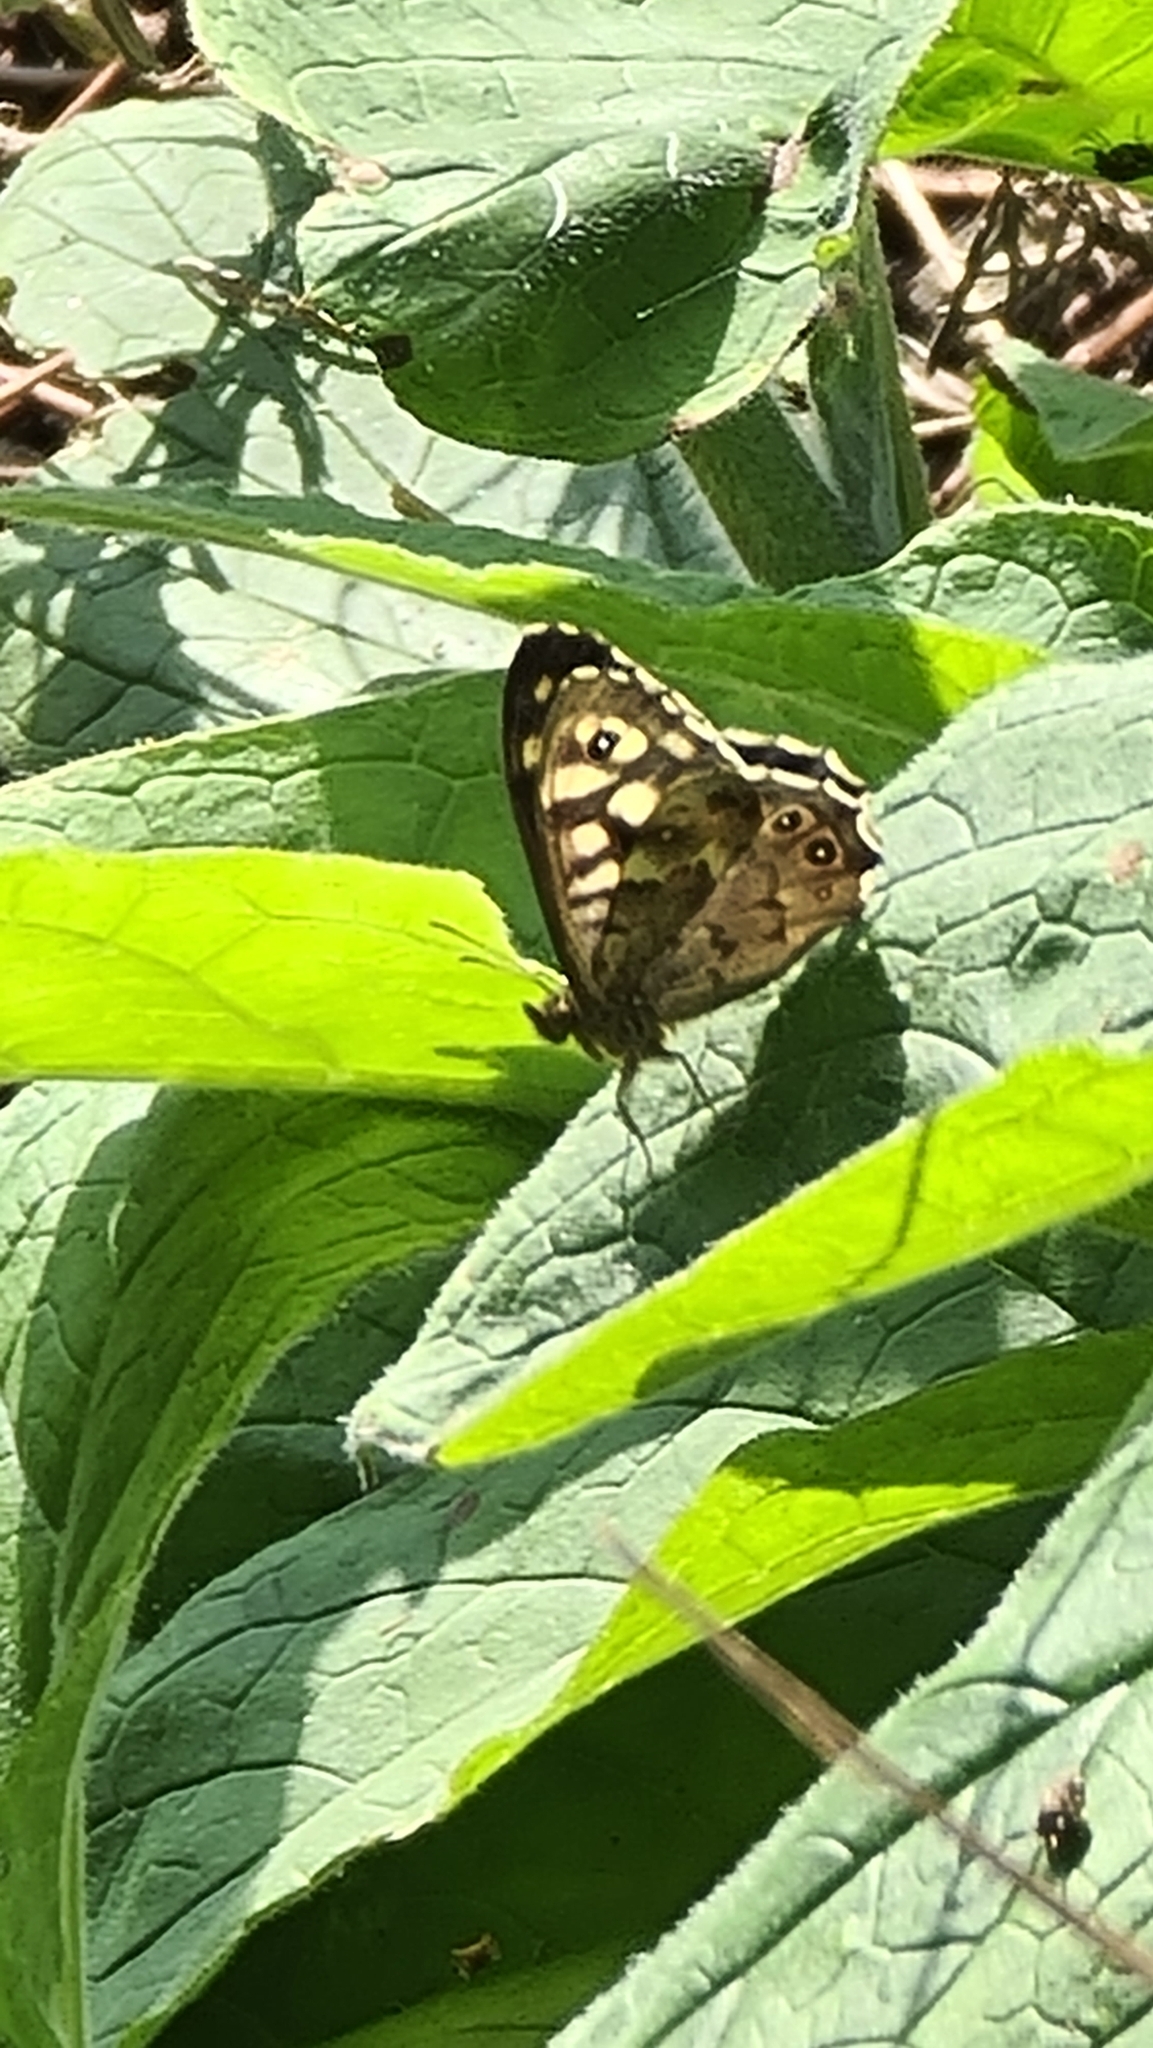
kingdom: Animalia
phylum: Arthropoda
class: Insecta
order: Lepidoptera
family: Nymphalidae
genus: Pararge
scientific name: Pararge aegeria
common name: Speckled wood
